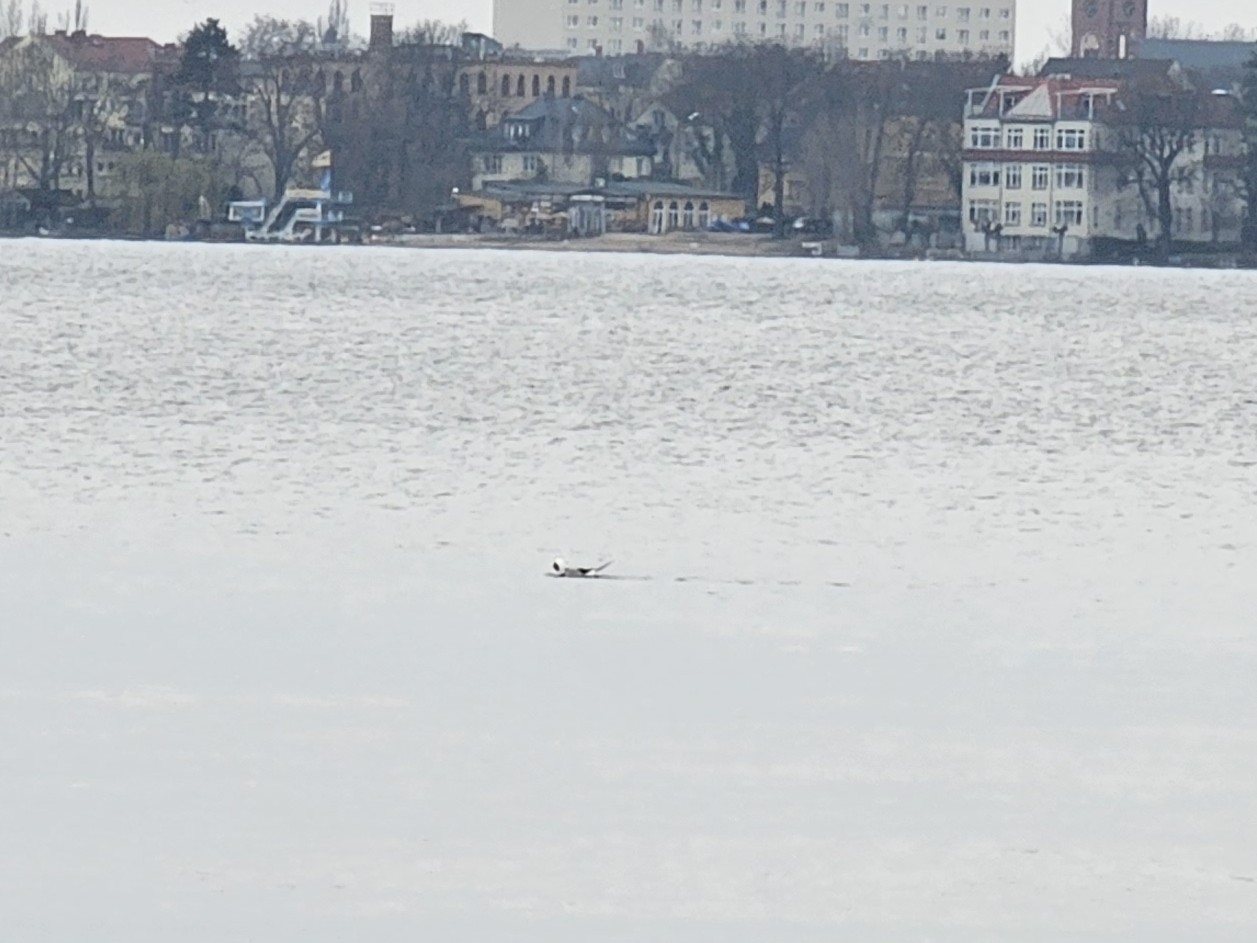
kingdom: Animalia
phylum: Chordata
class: Aves
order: Anseriformes
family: Anatidae
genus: Clangula
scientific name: Clangula hyemalis
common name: Long-tailed duck
